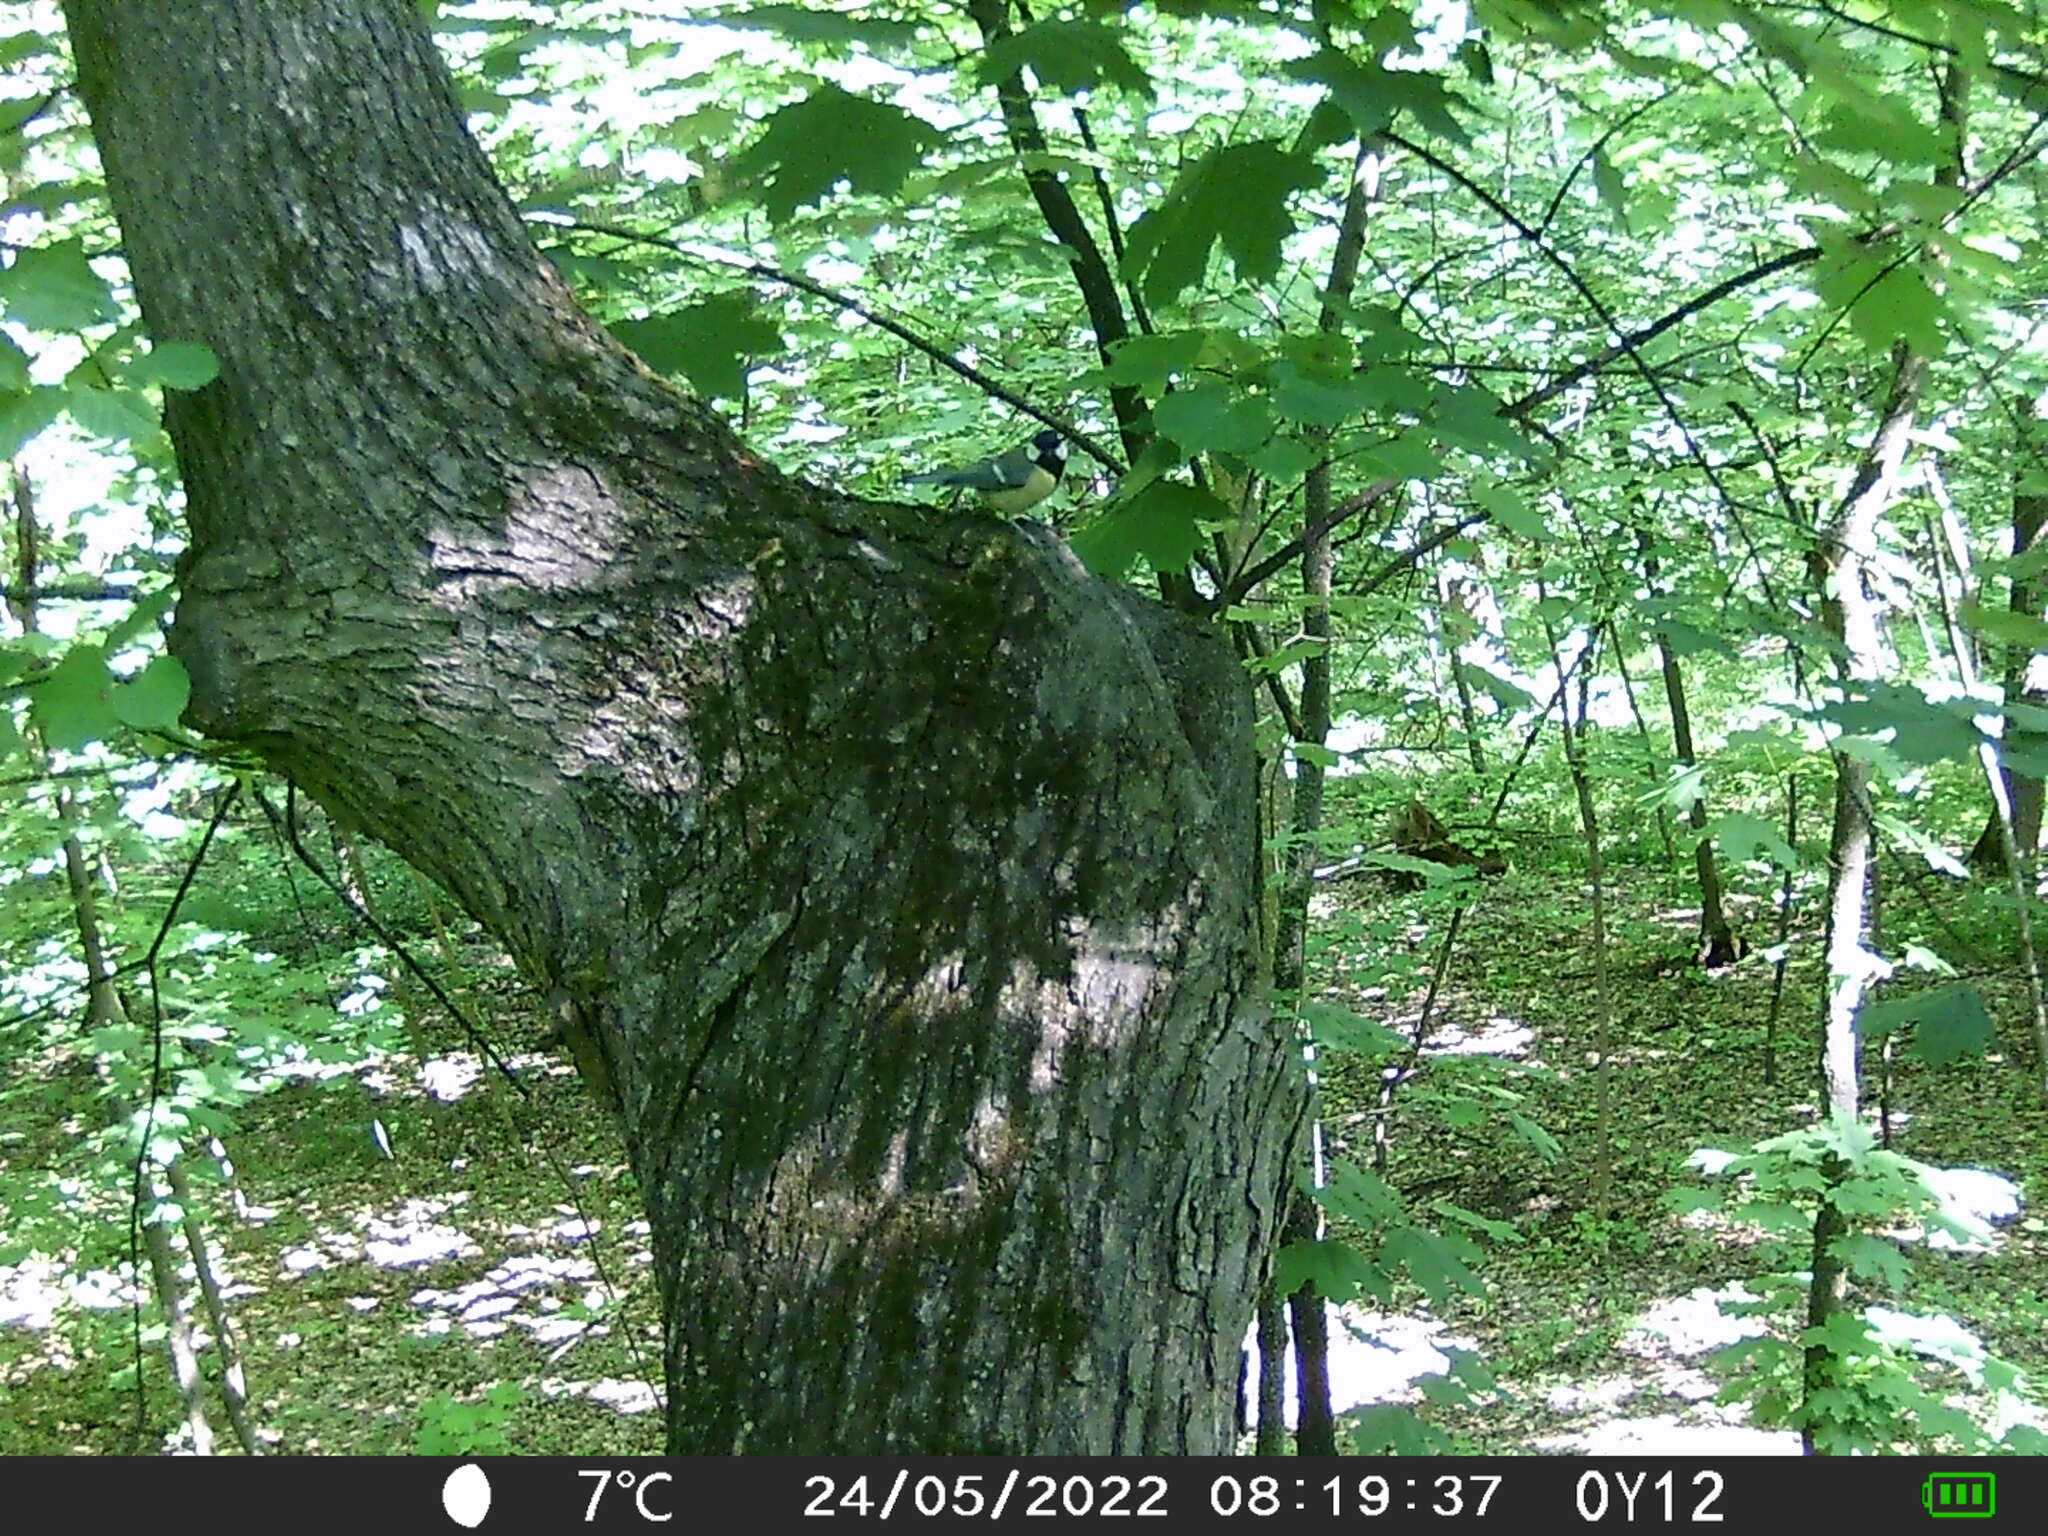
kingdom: Animalia
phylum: Chordata
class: Aves
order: Passeriformes
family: Paridae
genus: Parus
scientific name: Parus major
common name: Great tit
